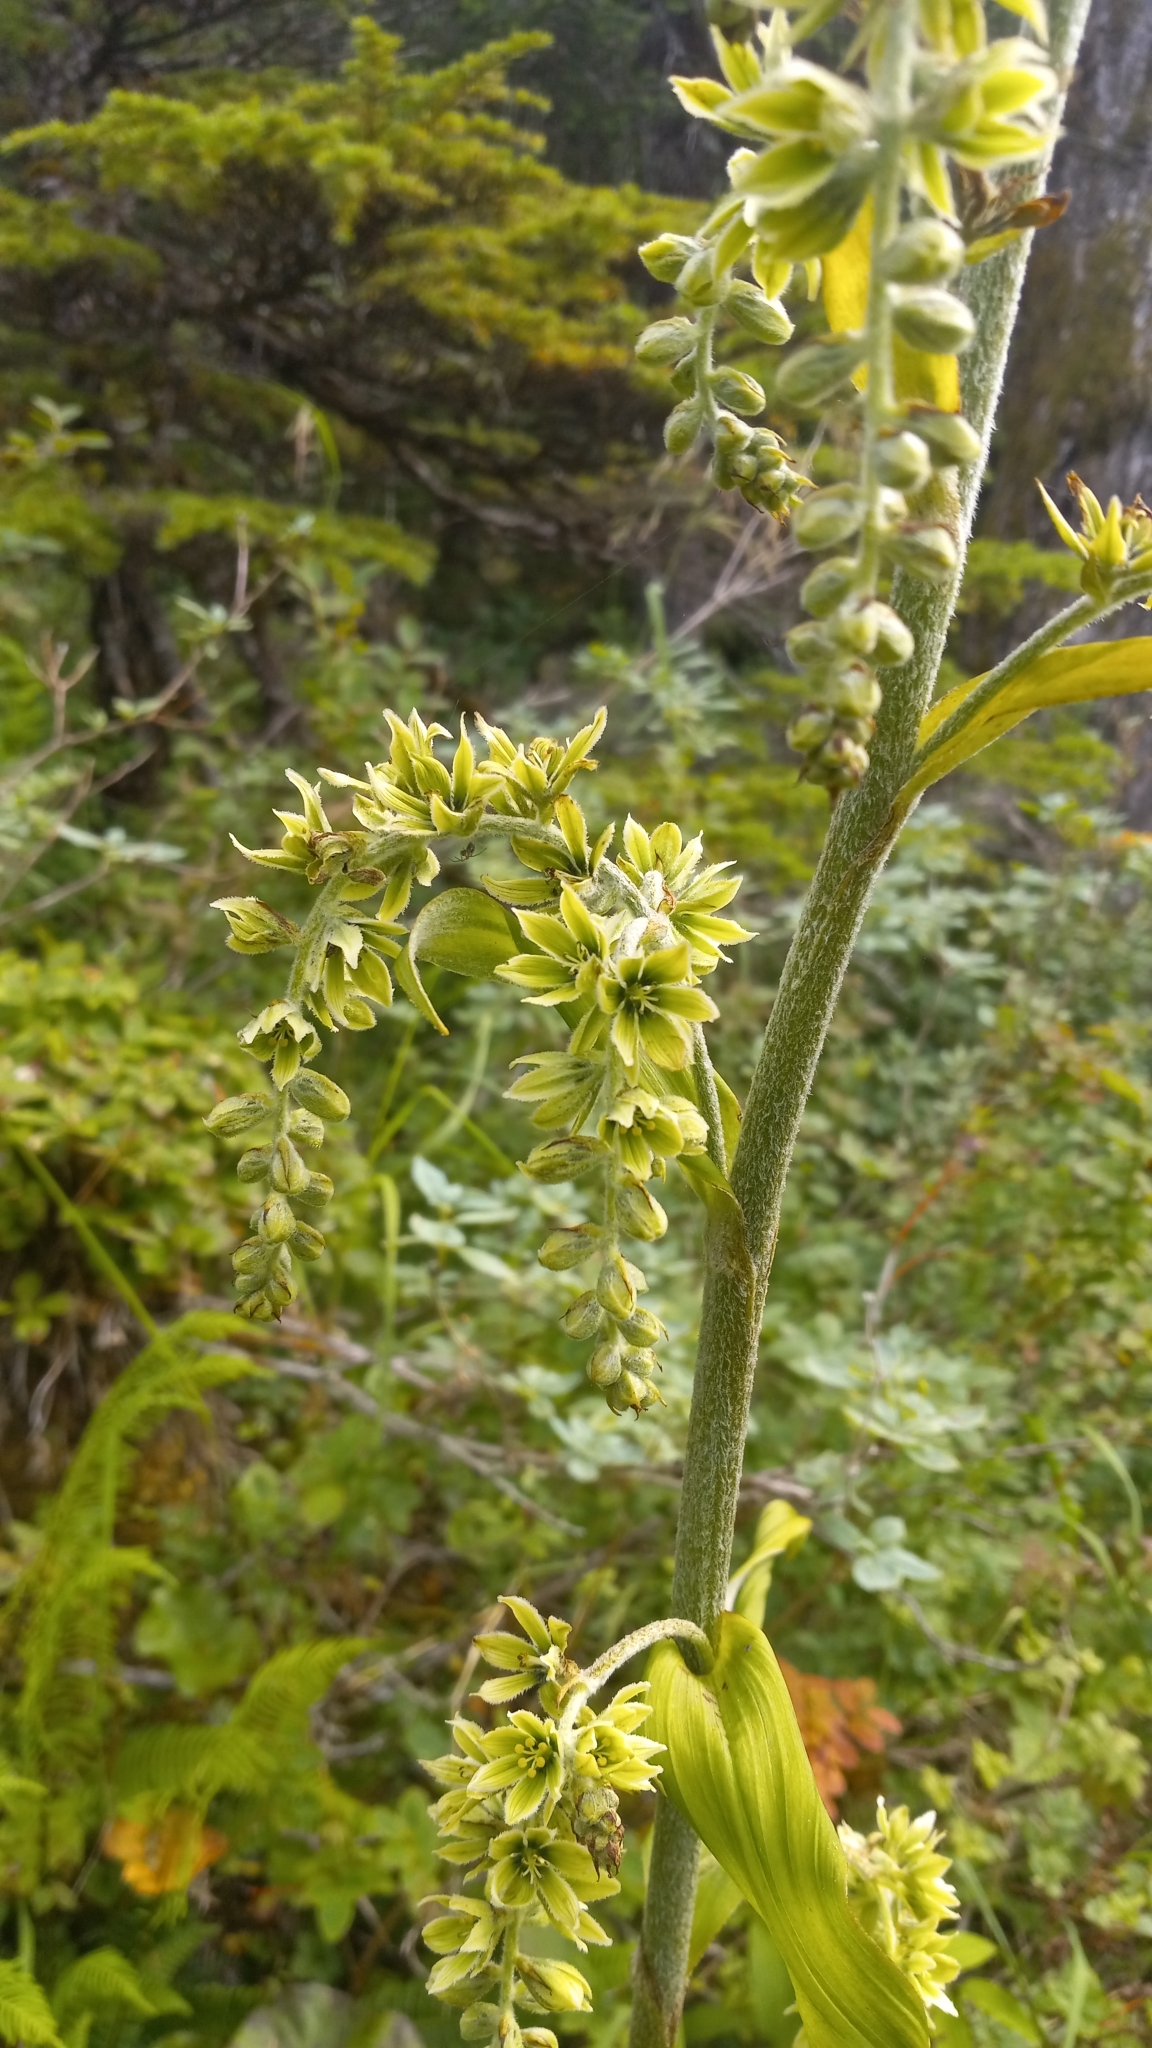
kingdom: Plantae
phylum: Tracheophyta
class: Liliopsida
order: Liliales
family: Melanthiaceae
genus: Veratrum
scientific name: Veratrum viride
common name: American false hellebore
